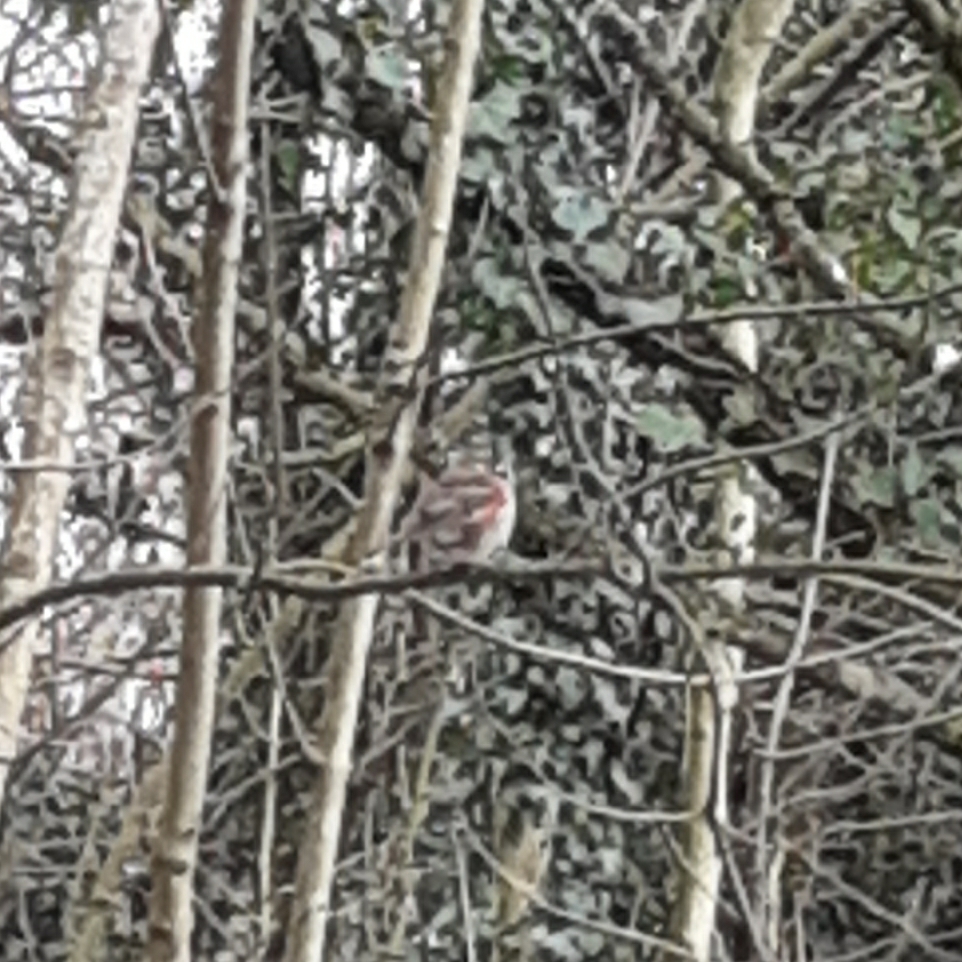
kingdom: Animalia
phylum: Chordata
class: Aves
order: Passeriformes
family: Turdidae
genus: Turdus
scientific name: Turdus iliacus
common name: Redwing
